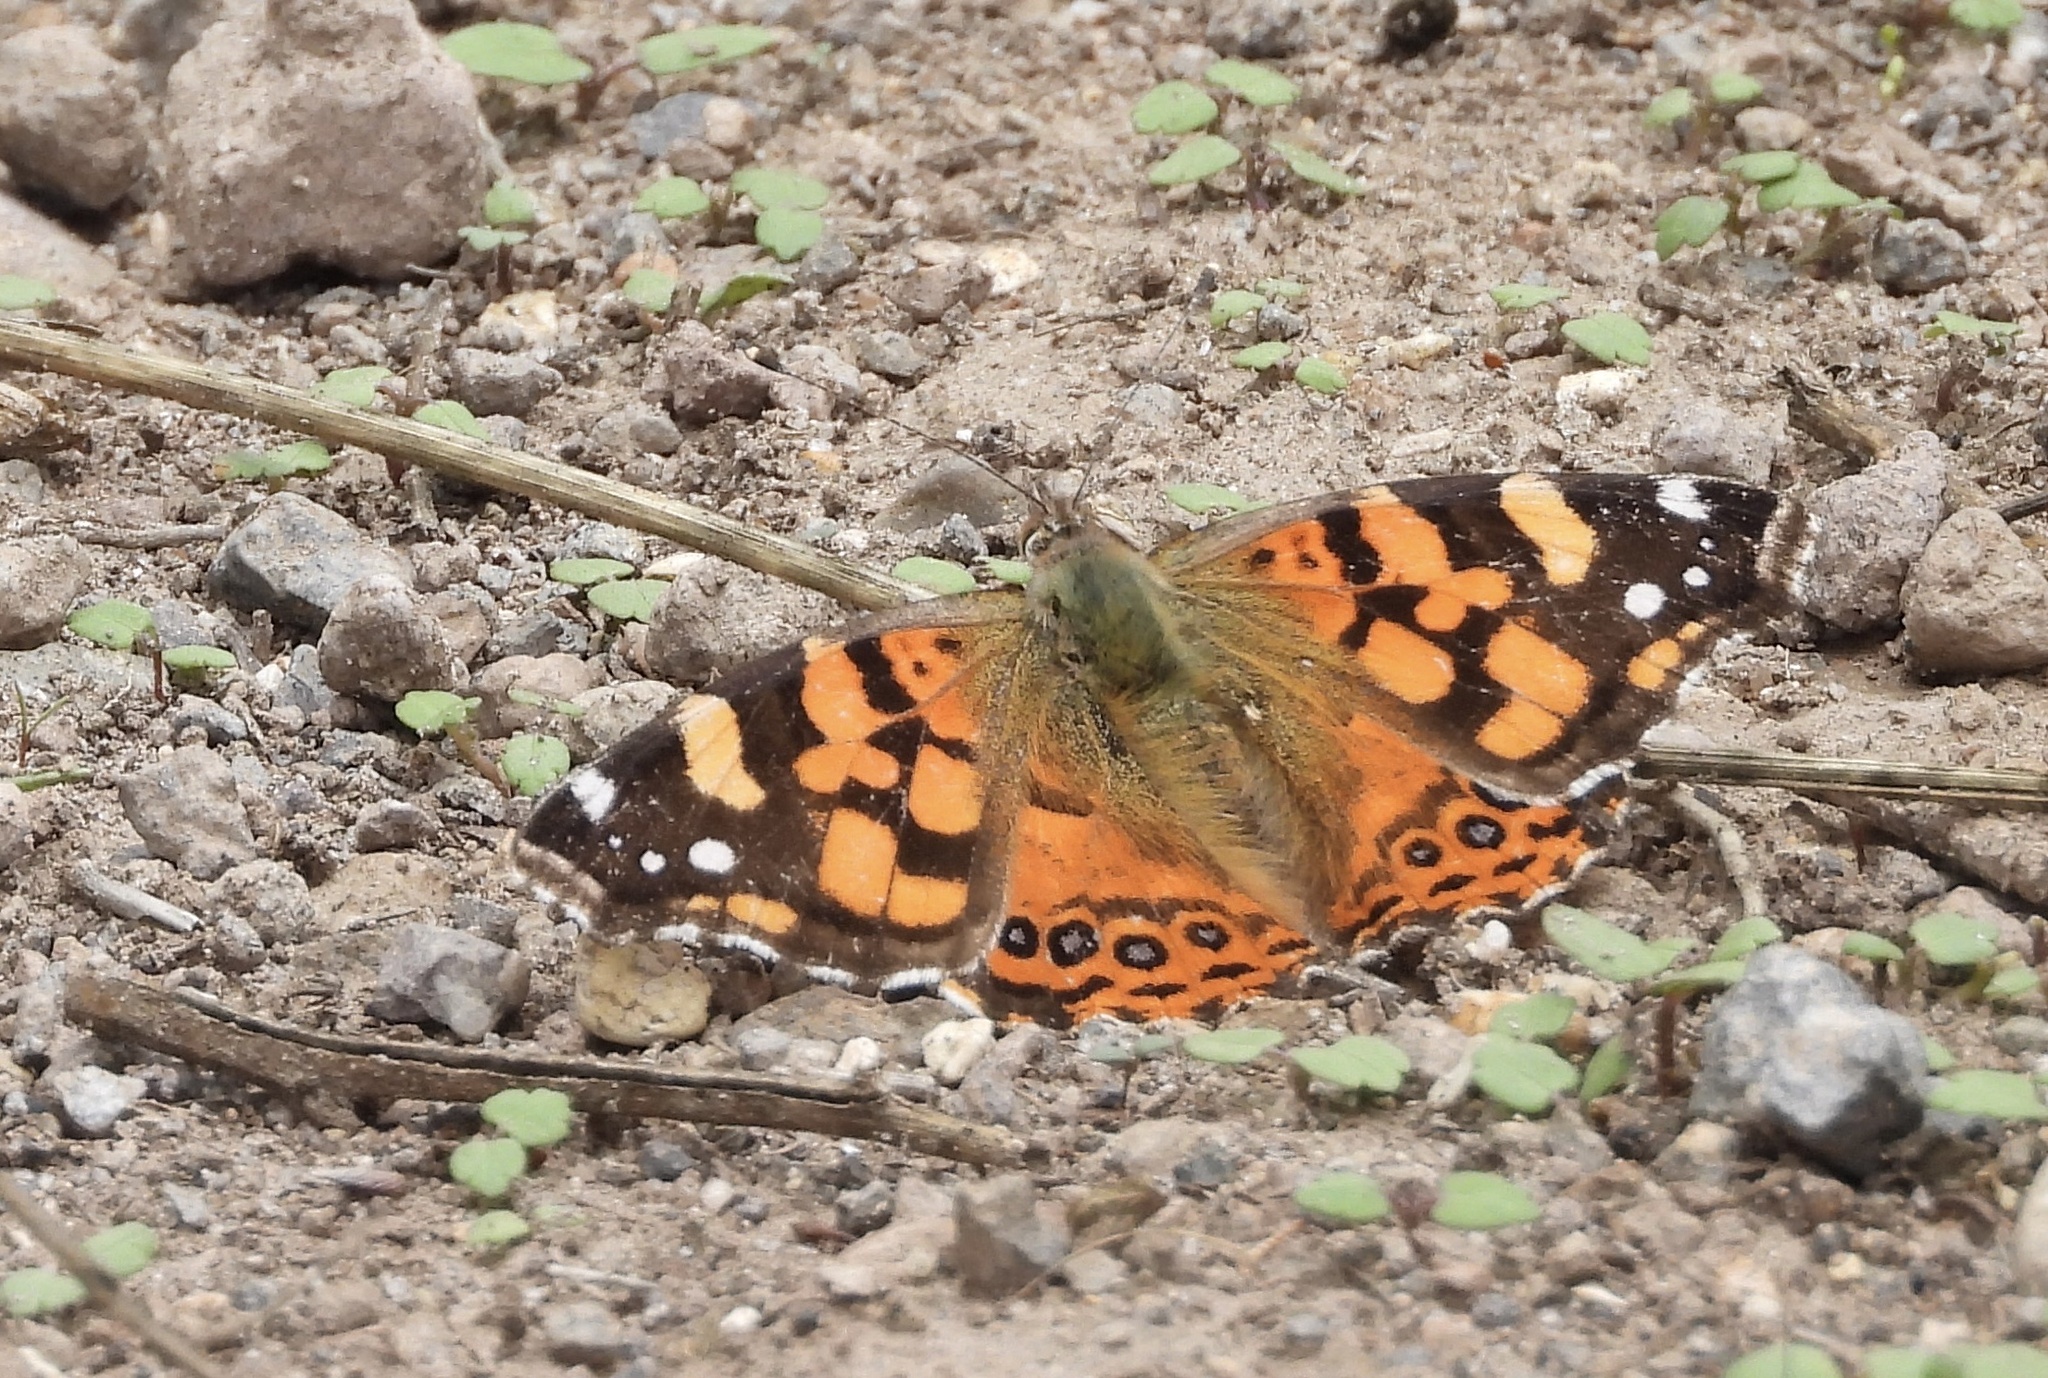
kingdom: Animalia
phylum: Arthropoda
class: Insecta
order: Lepidoptera
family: Nymphalidae
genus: Vanessa
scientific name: Vanessa carye
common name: Subtropical lady
